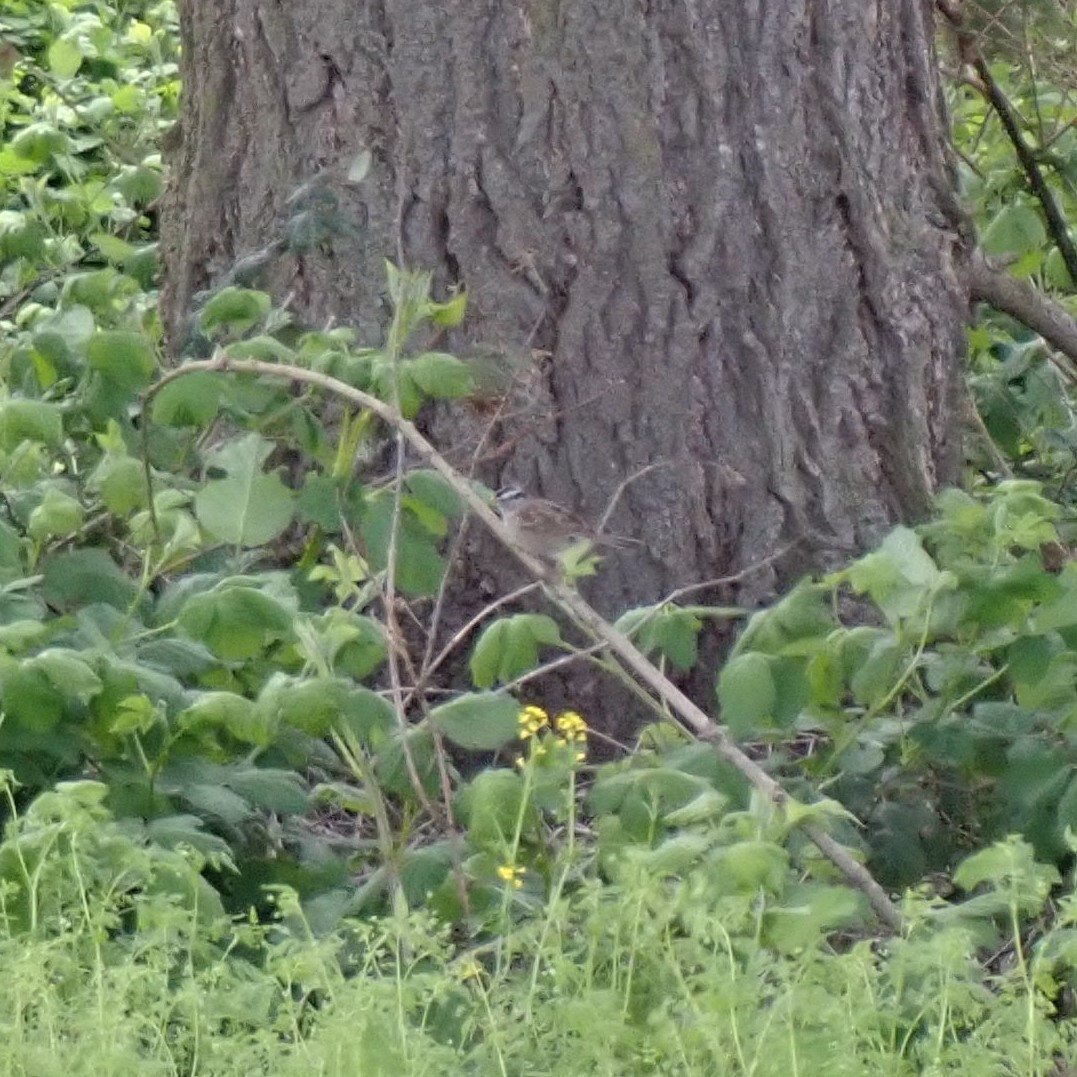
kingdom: Animalia
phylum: Chordata
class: Aves
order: Passeriformes
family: Passerellidae
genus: Zonotrichia
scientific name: Zonotrichia leucophrys
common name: White-crowned sparrow
